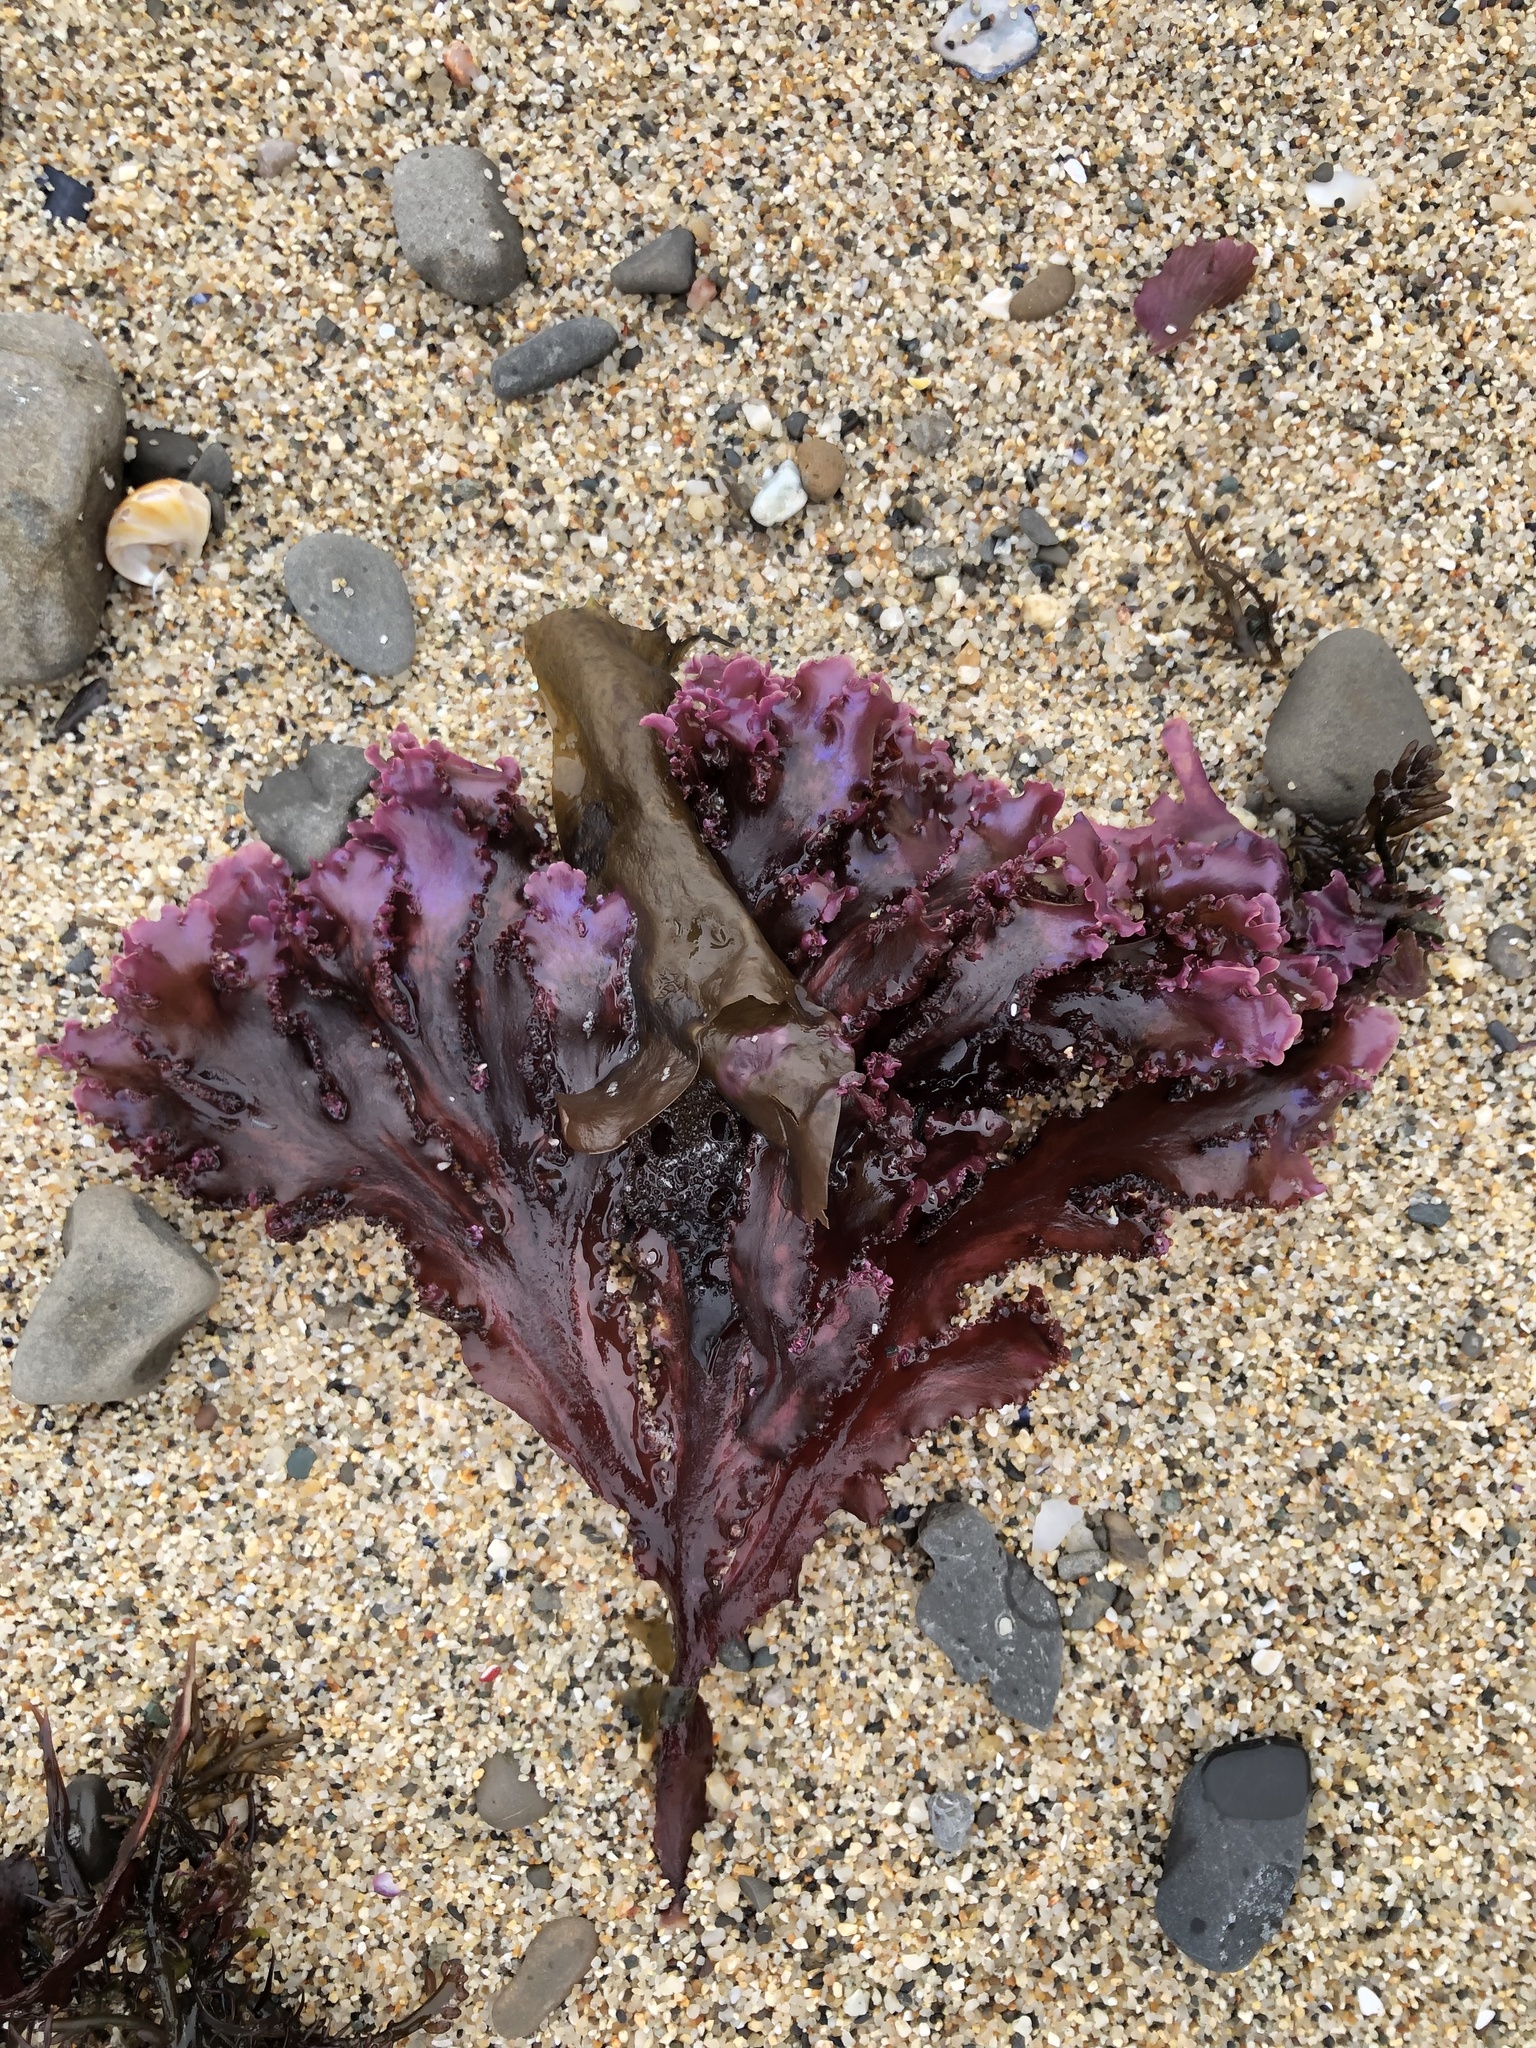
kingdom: Plantae
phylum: Rhodophyta
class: Florideophyceae
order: Ceramiales
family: Delesseriaceae
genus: Cryptopleura
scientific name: Cryptopleura ruprechtiana
